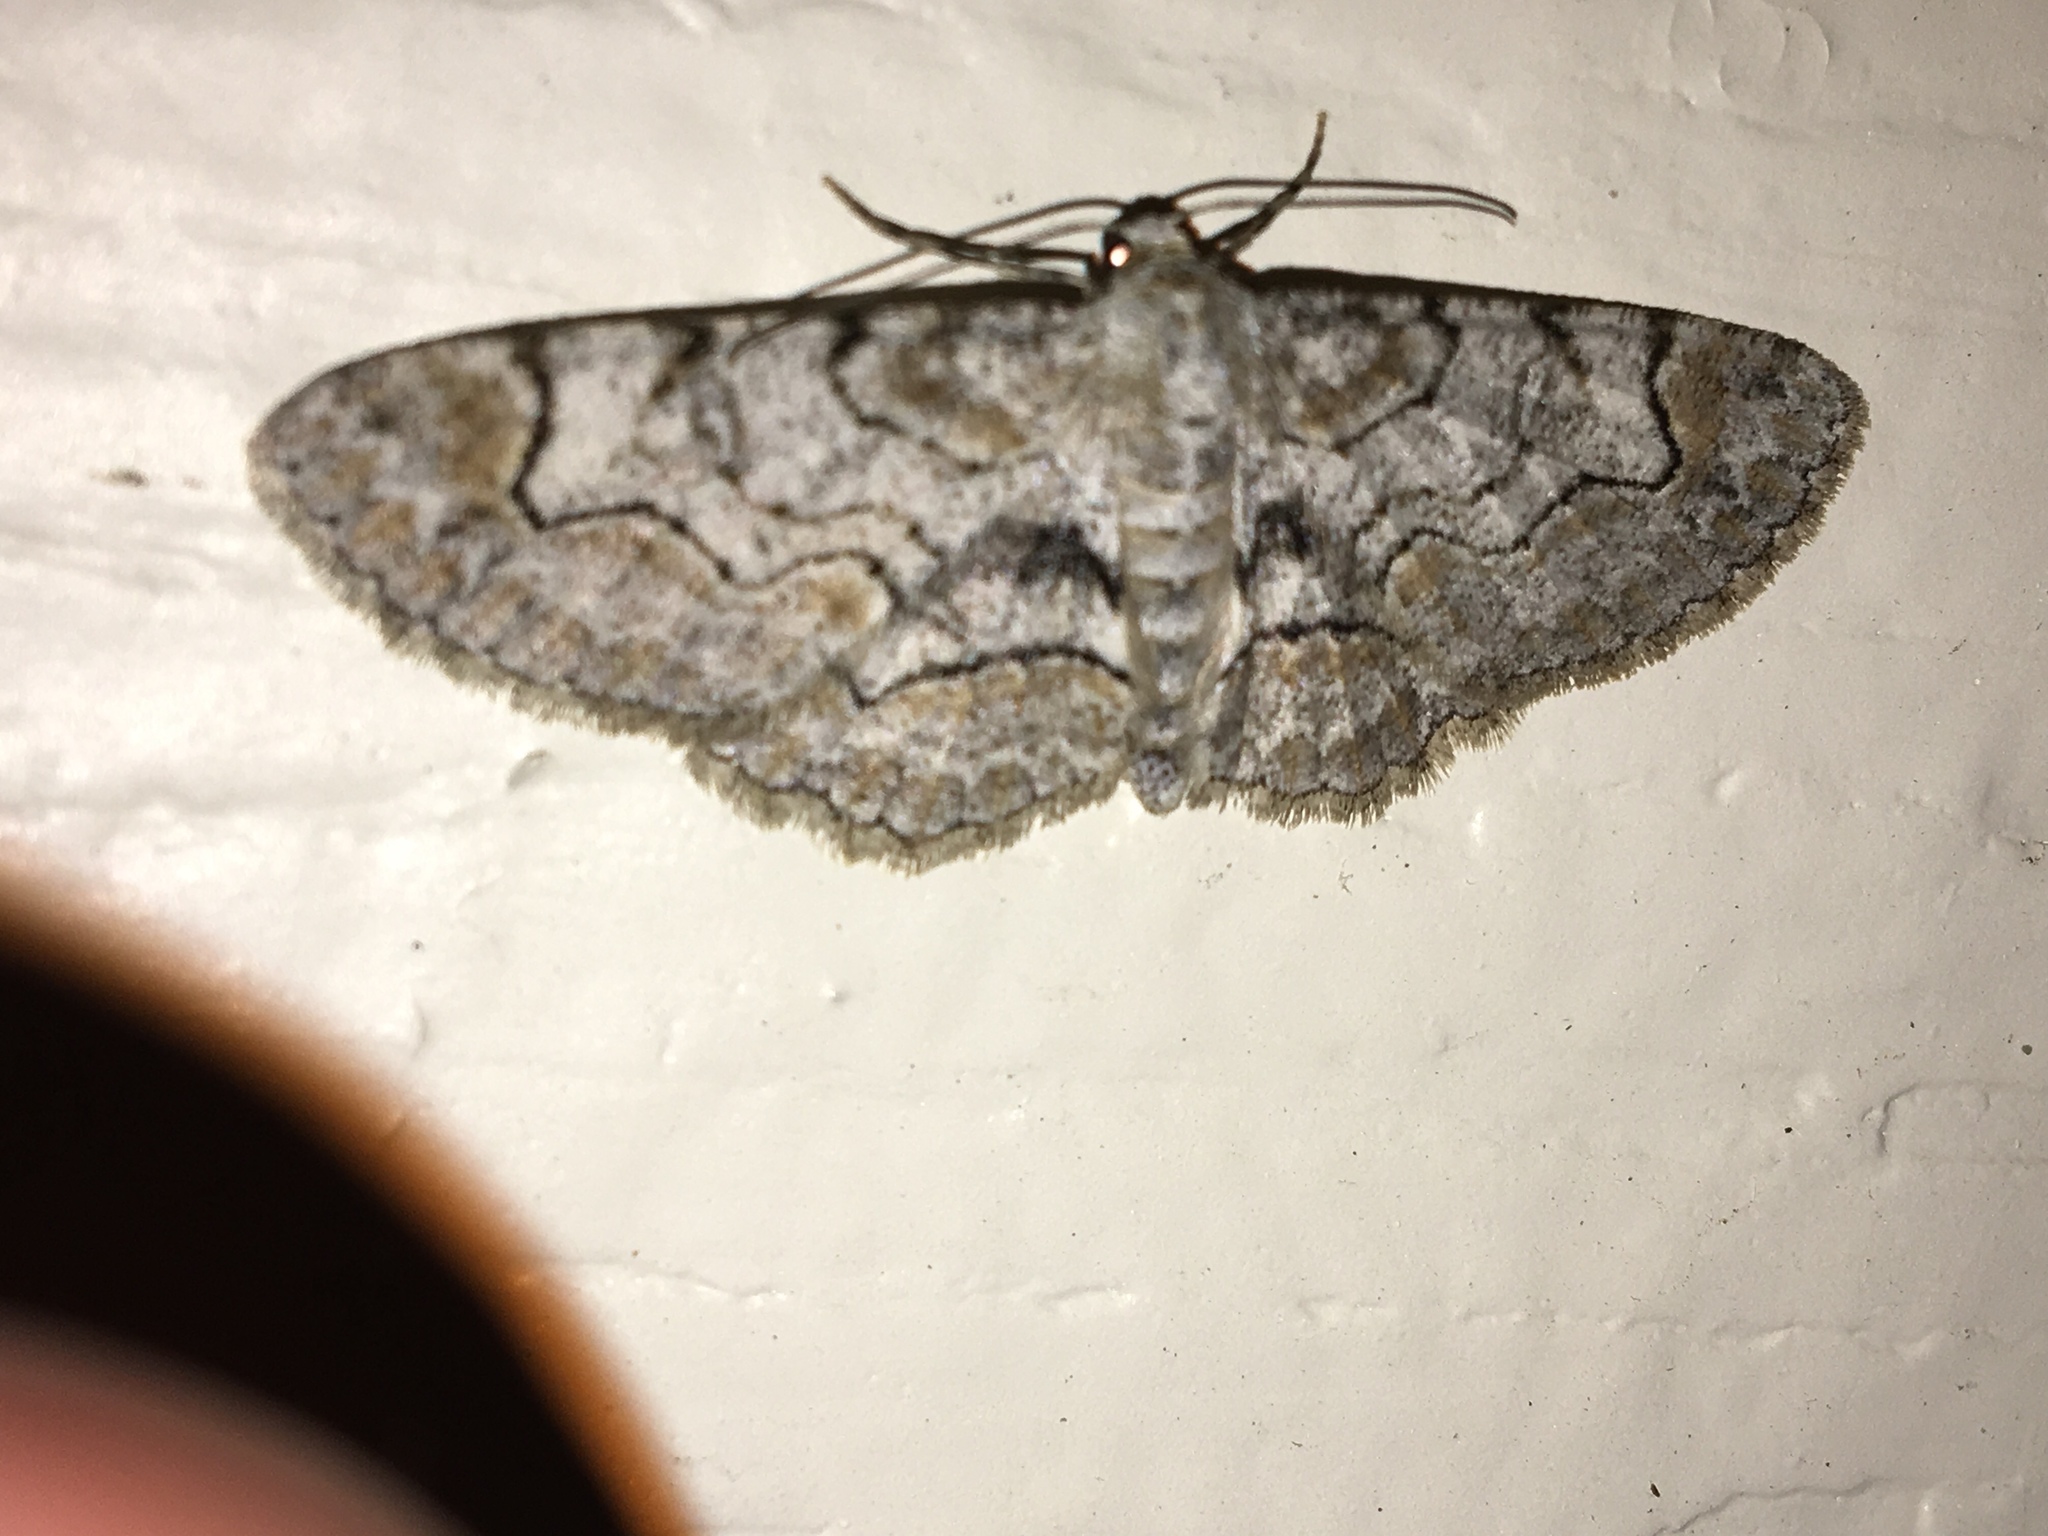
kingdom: Animalia
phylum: Arthropoda
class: Insecta
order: Lepidoptera
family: Geometridae
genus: Iridopsis
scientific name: Iridopsis larvaria
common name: Bent-line gray
